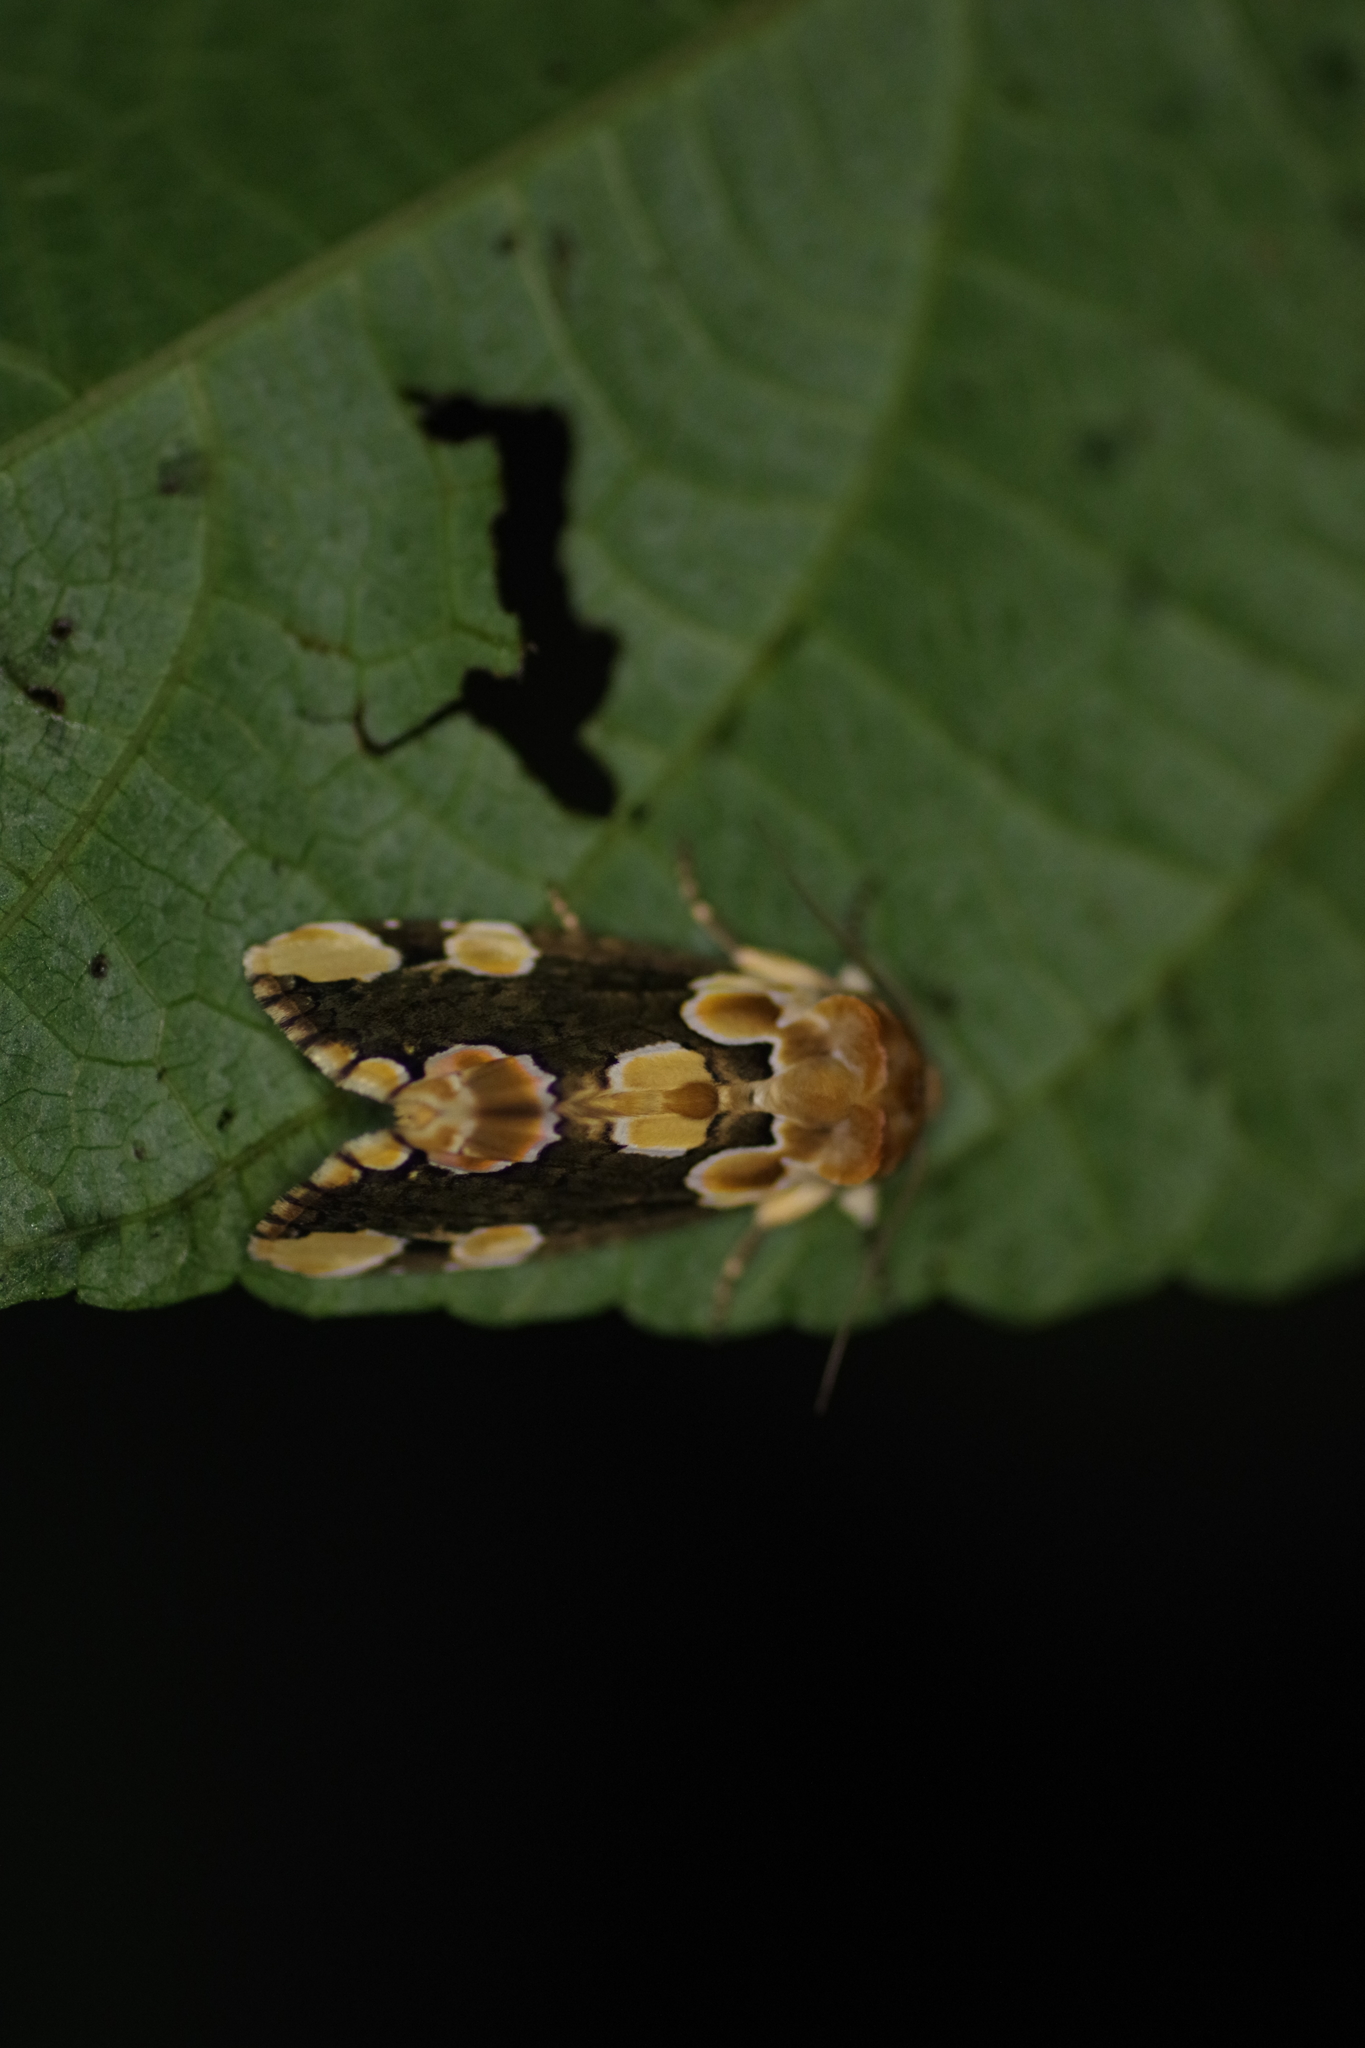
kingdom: Animalia
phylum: Arthropoda
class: Insecta
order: Lepidoptera
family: Drepanidae
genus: Thyatira
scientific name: Thyatira mexicana
